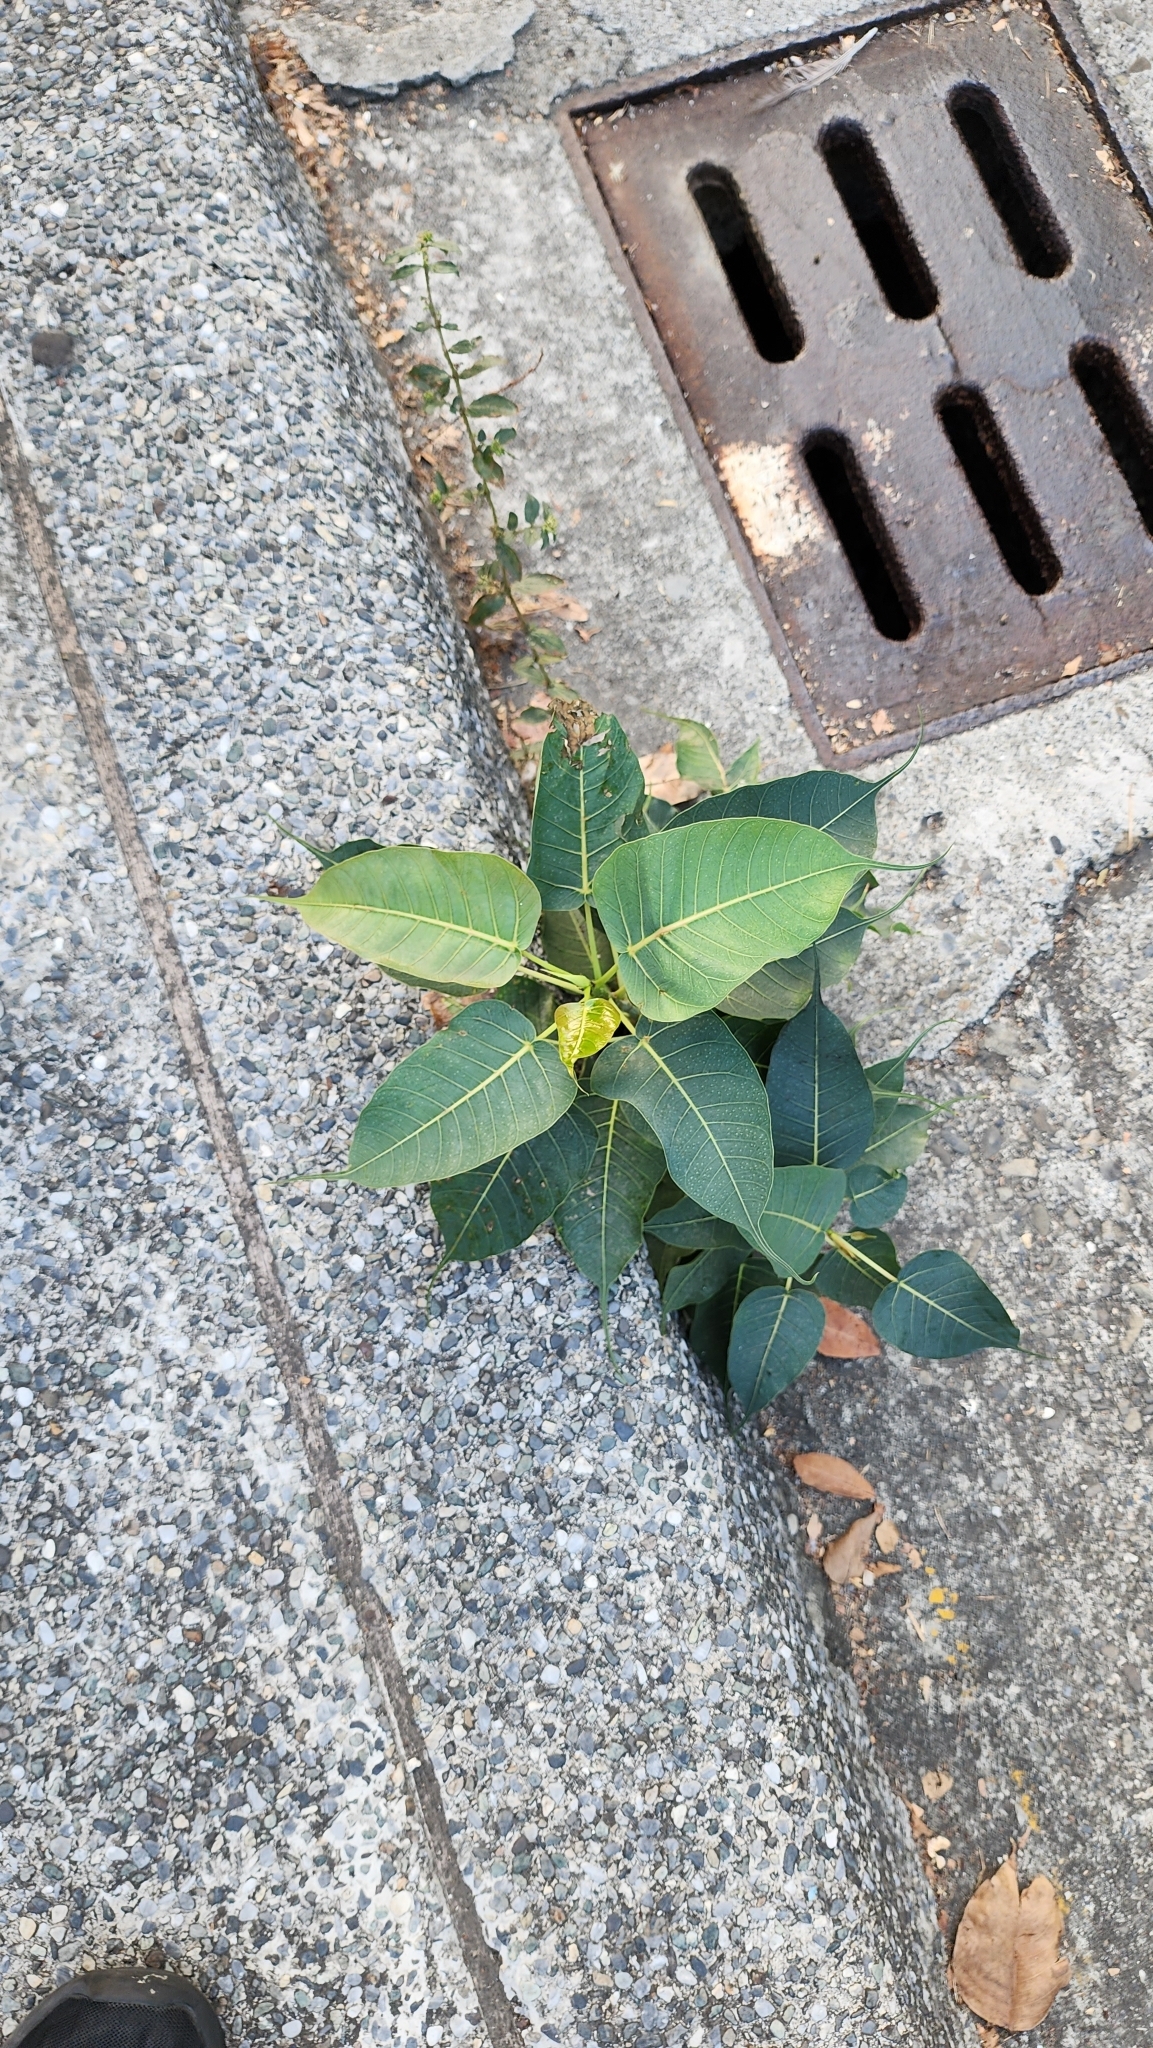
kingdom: Plantae
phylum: Tracheophyta
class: Magnoliopsida
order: Rosales
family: Moraceae
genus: Ficus
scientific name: Ficus religiosa
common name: Bodhi tree
